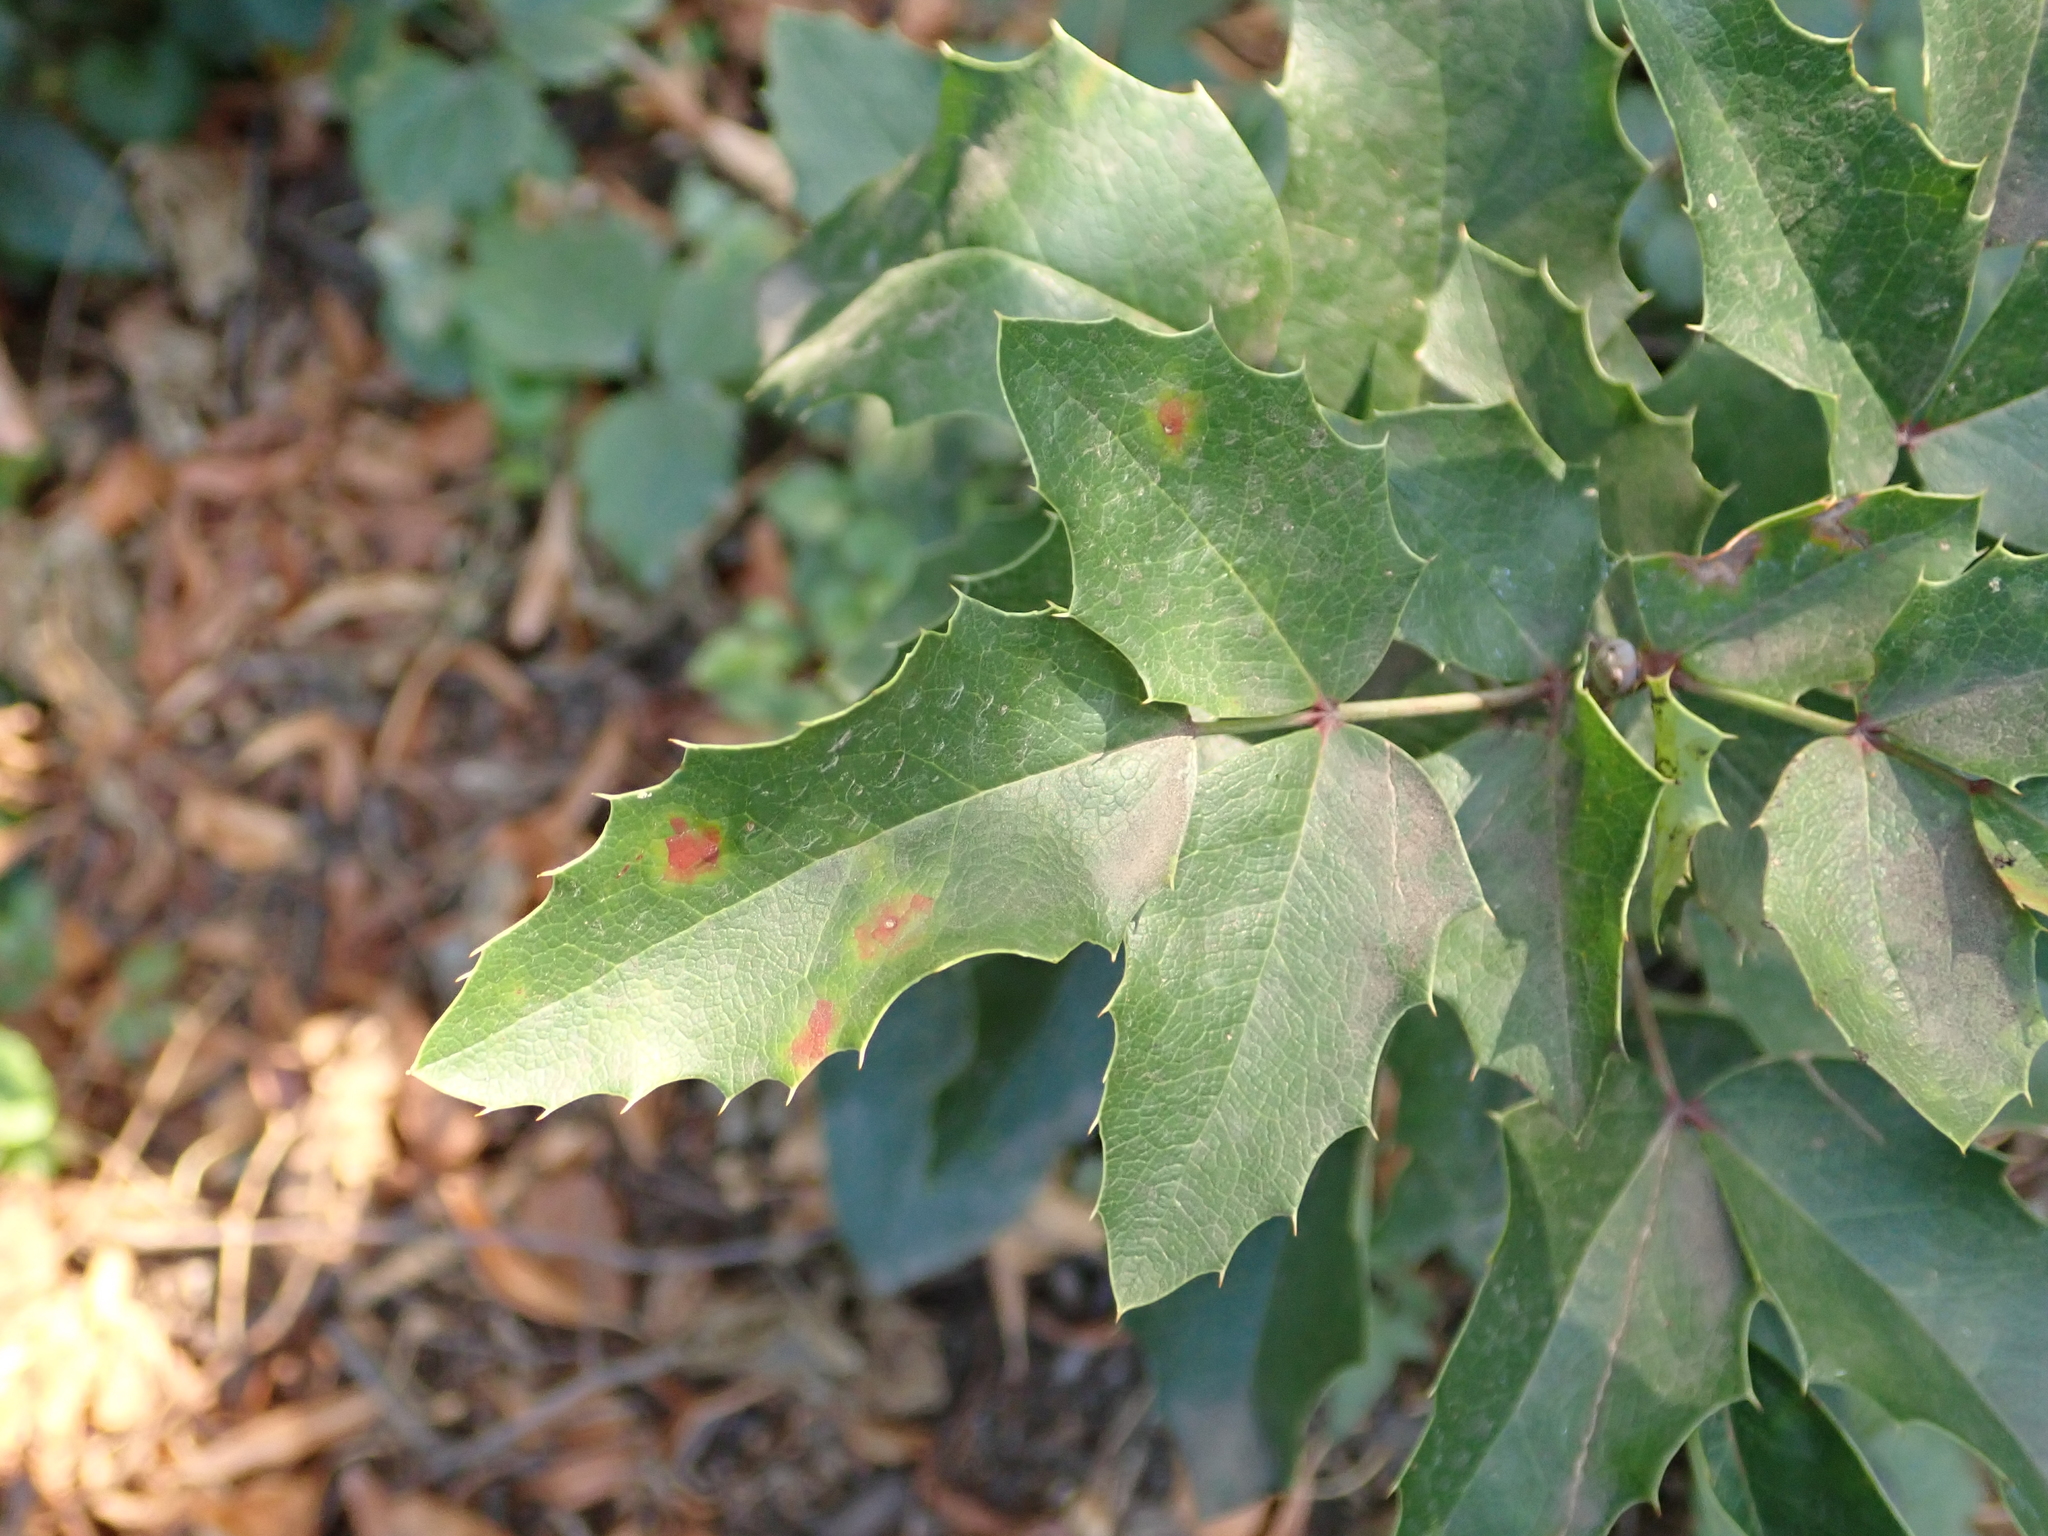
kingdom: Plantae
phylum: Tracheophyta
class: Magnoliopsida
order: Ranunculales
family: Berberidaceae
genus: Mahonia
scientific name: Mahonia aquifolium
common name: Oregon-grape
